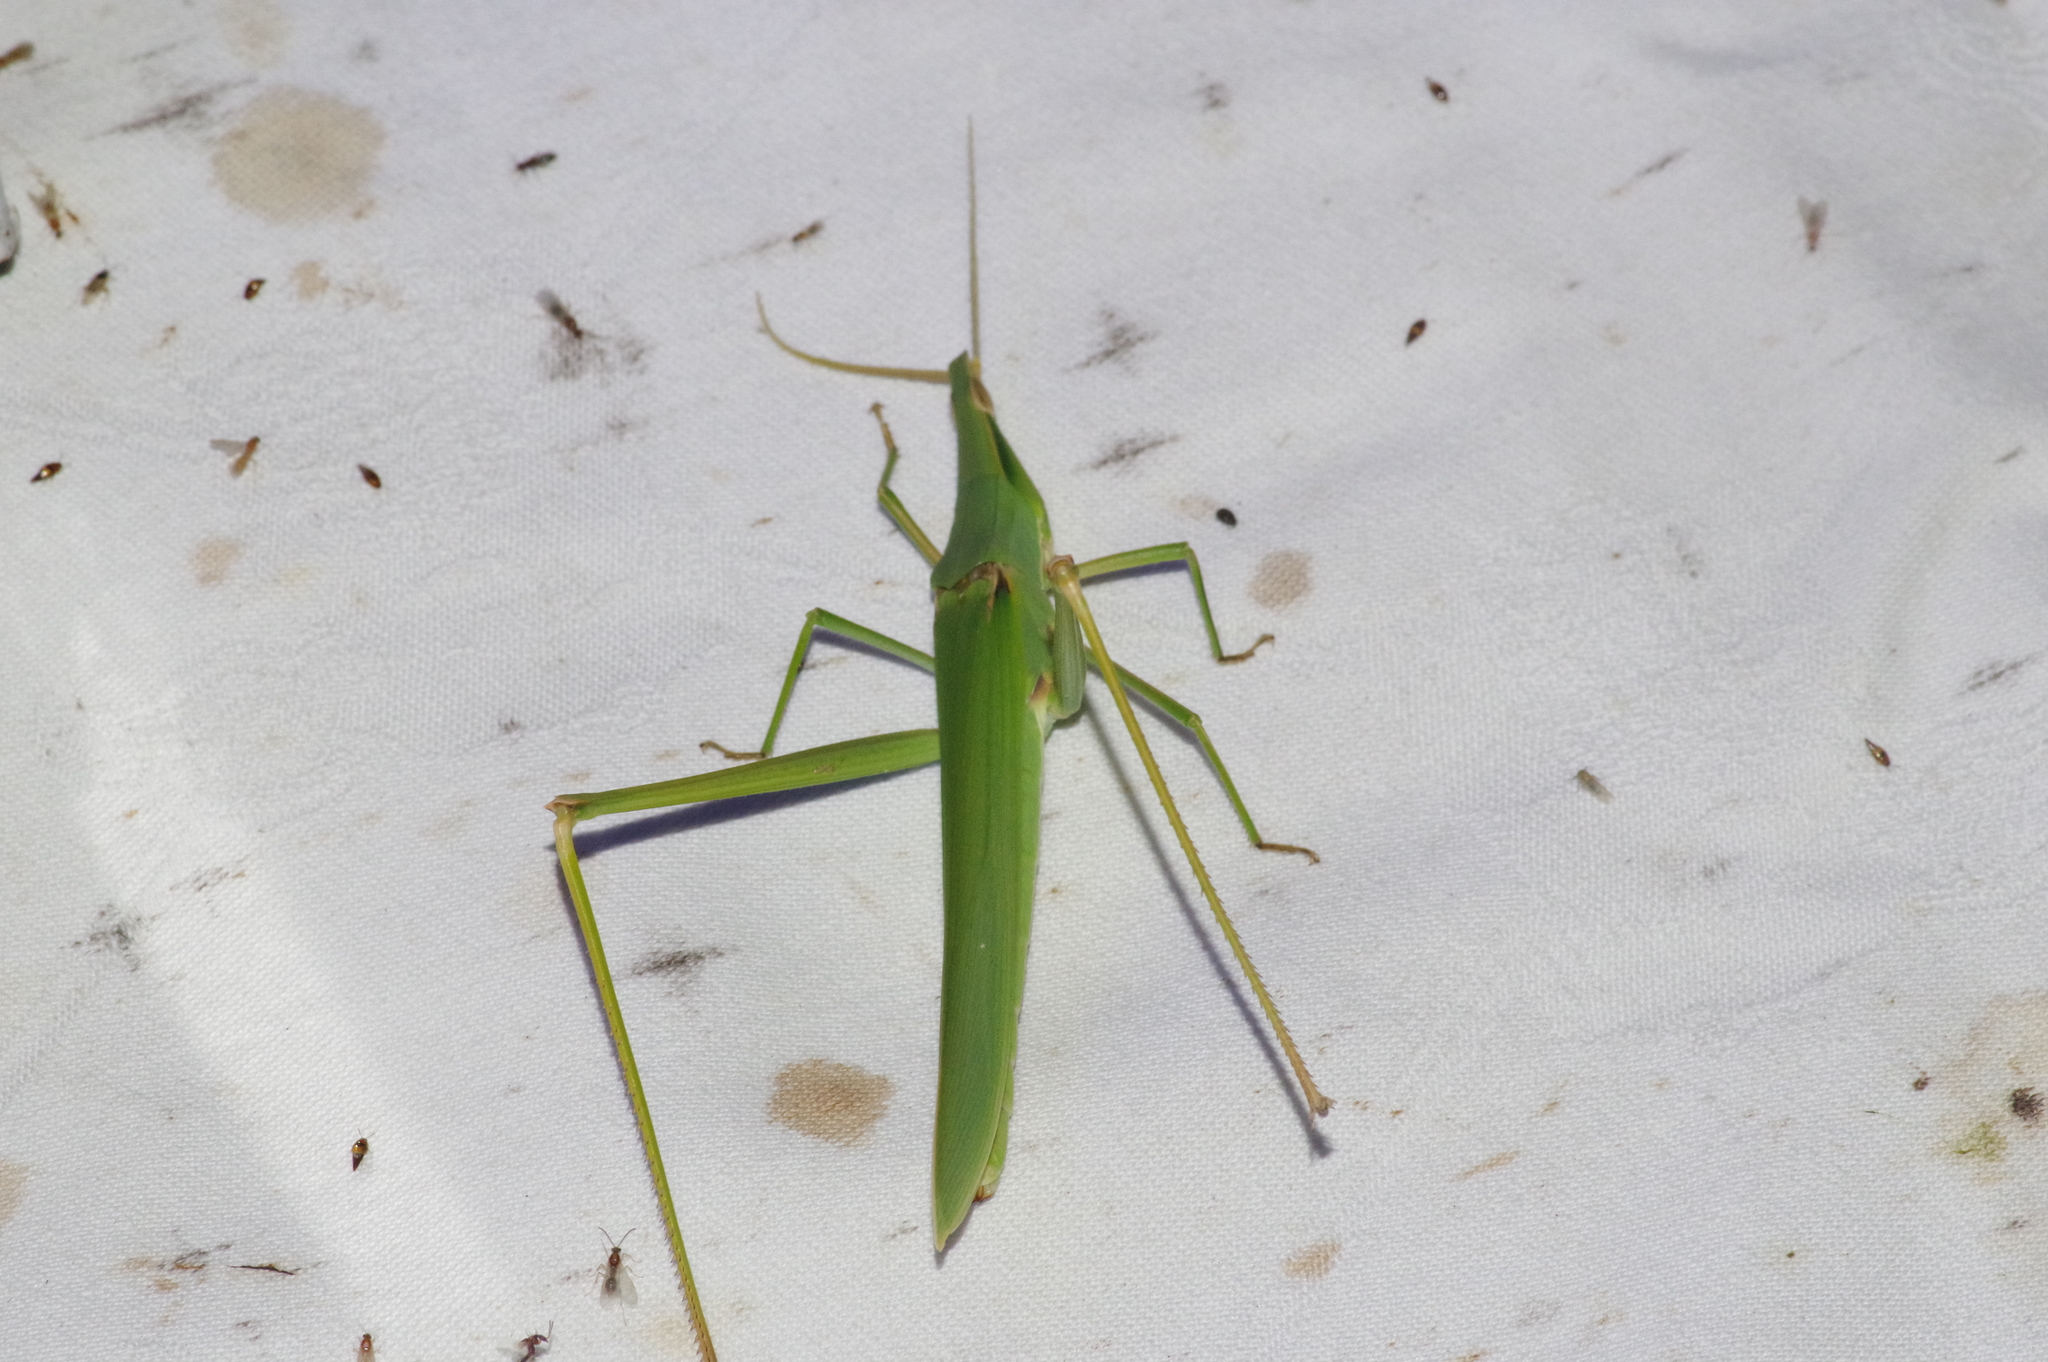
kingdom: Animalia
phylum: Arthropoda
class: Insecta
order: Orthoptera
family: Acrididae
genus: Acrida
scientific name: Acrida cinerea
